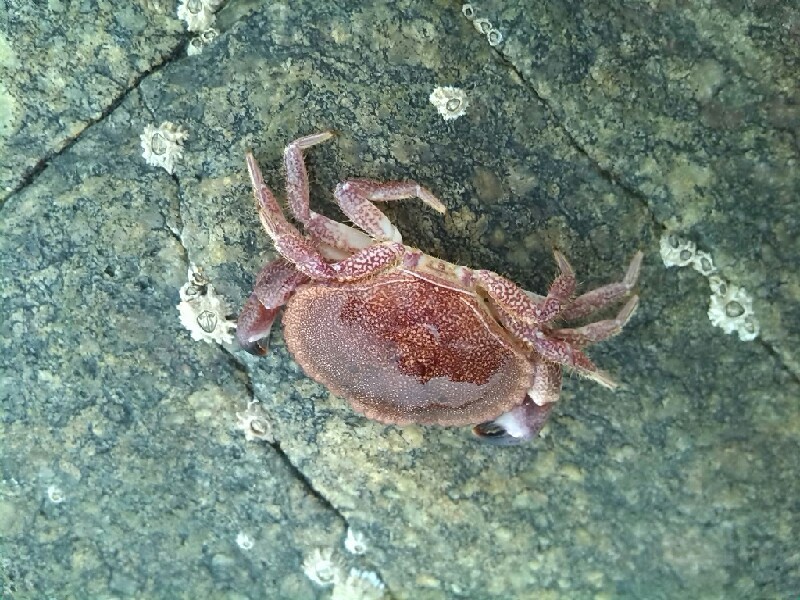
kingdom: Animalia
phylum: Arthropoda
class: Malacostraca
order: Decapoda
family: Cancridae
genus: Cancer
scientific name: Cancer pagurus
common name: Edible crab
